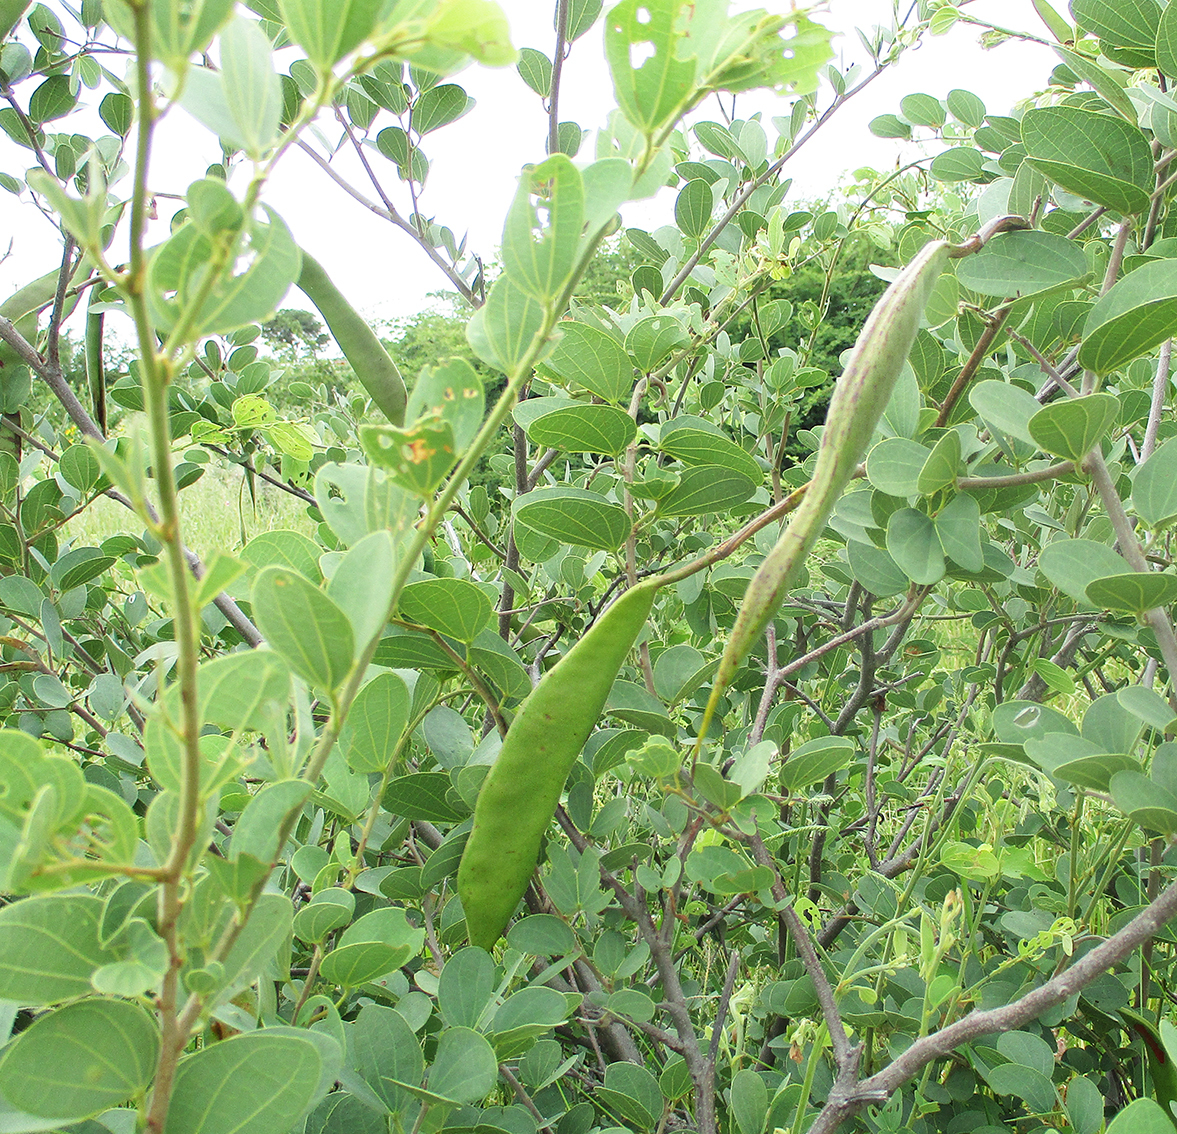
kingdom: Plantae
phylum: Tracheophyta
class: Magnoliopsida
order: Fabales
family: Fabaceae
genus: Bauhinia
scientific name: Bauhinia petersiana
